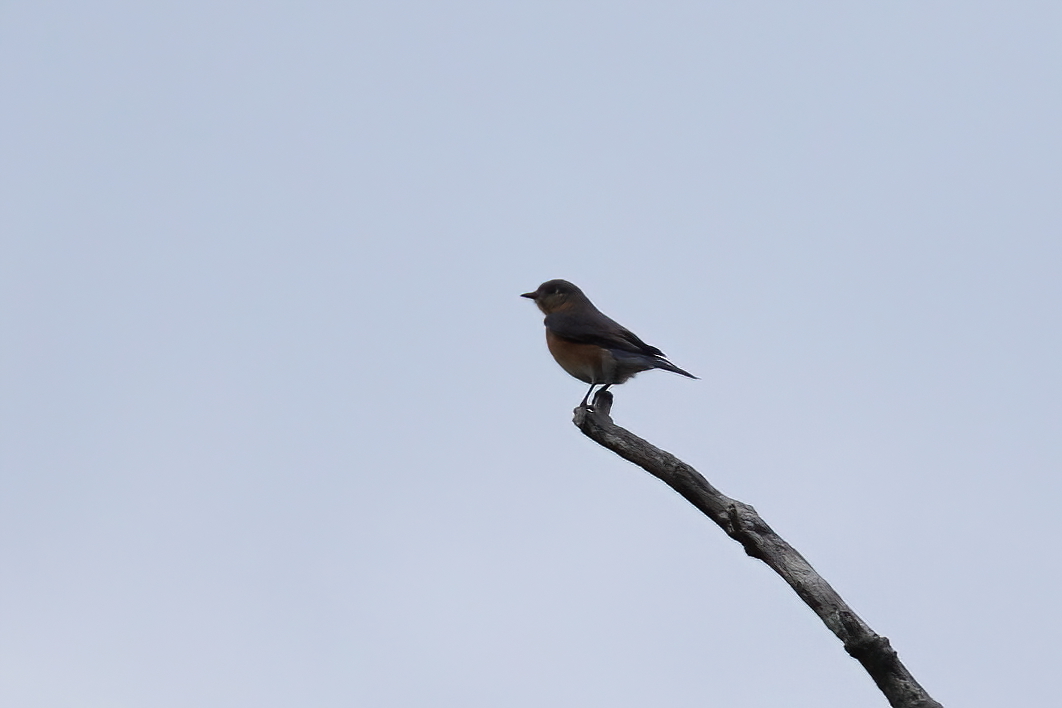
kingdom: Animalia
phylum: Chordata
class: Aves
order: Passeriformes
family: Turdidae
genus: Sialia
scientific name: Sialia sialis
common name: Eastern bluebird
